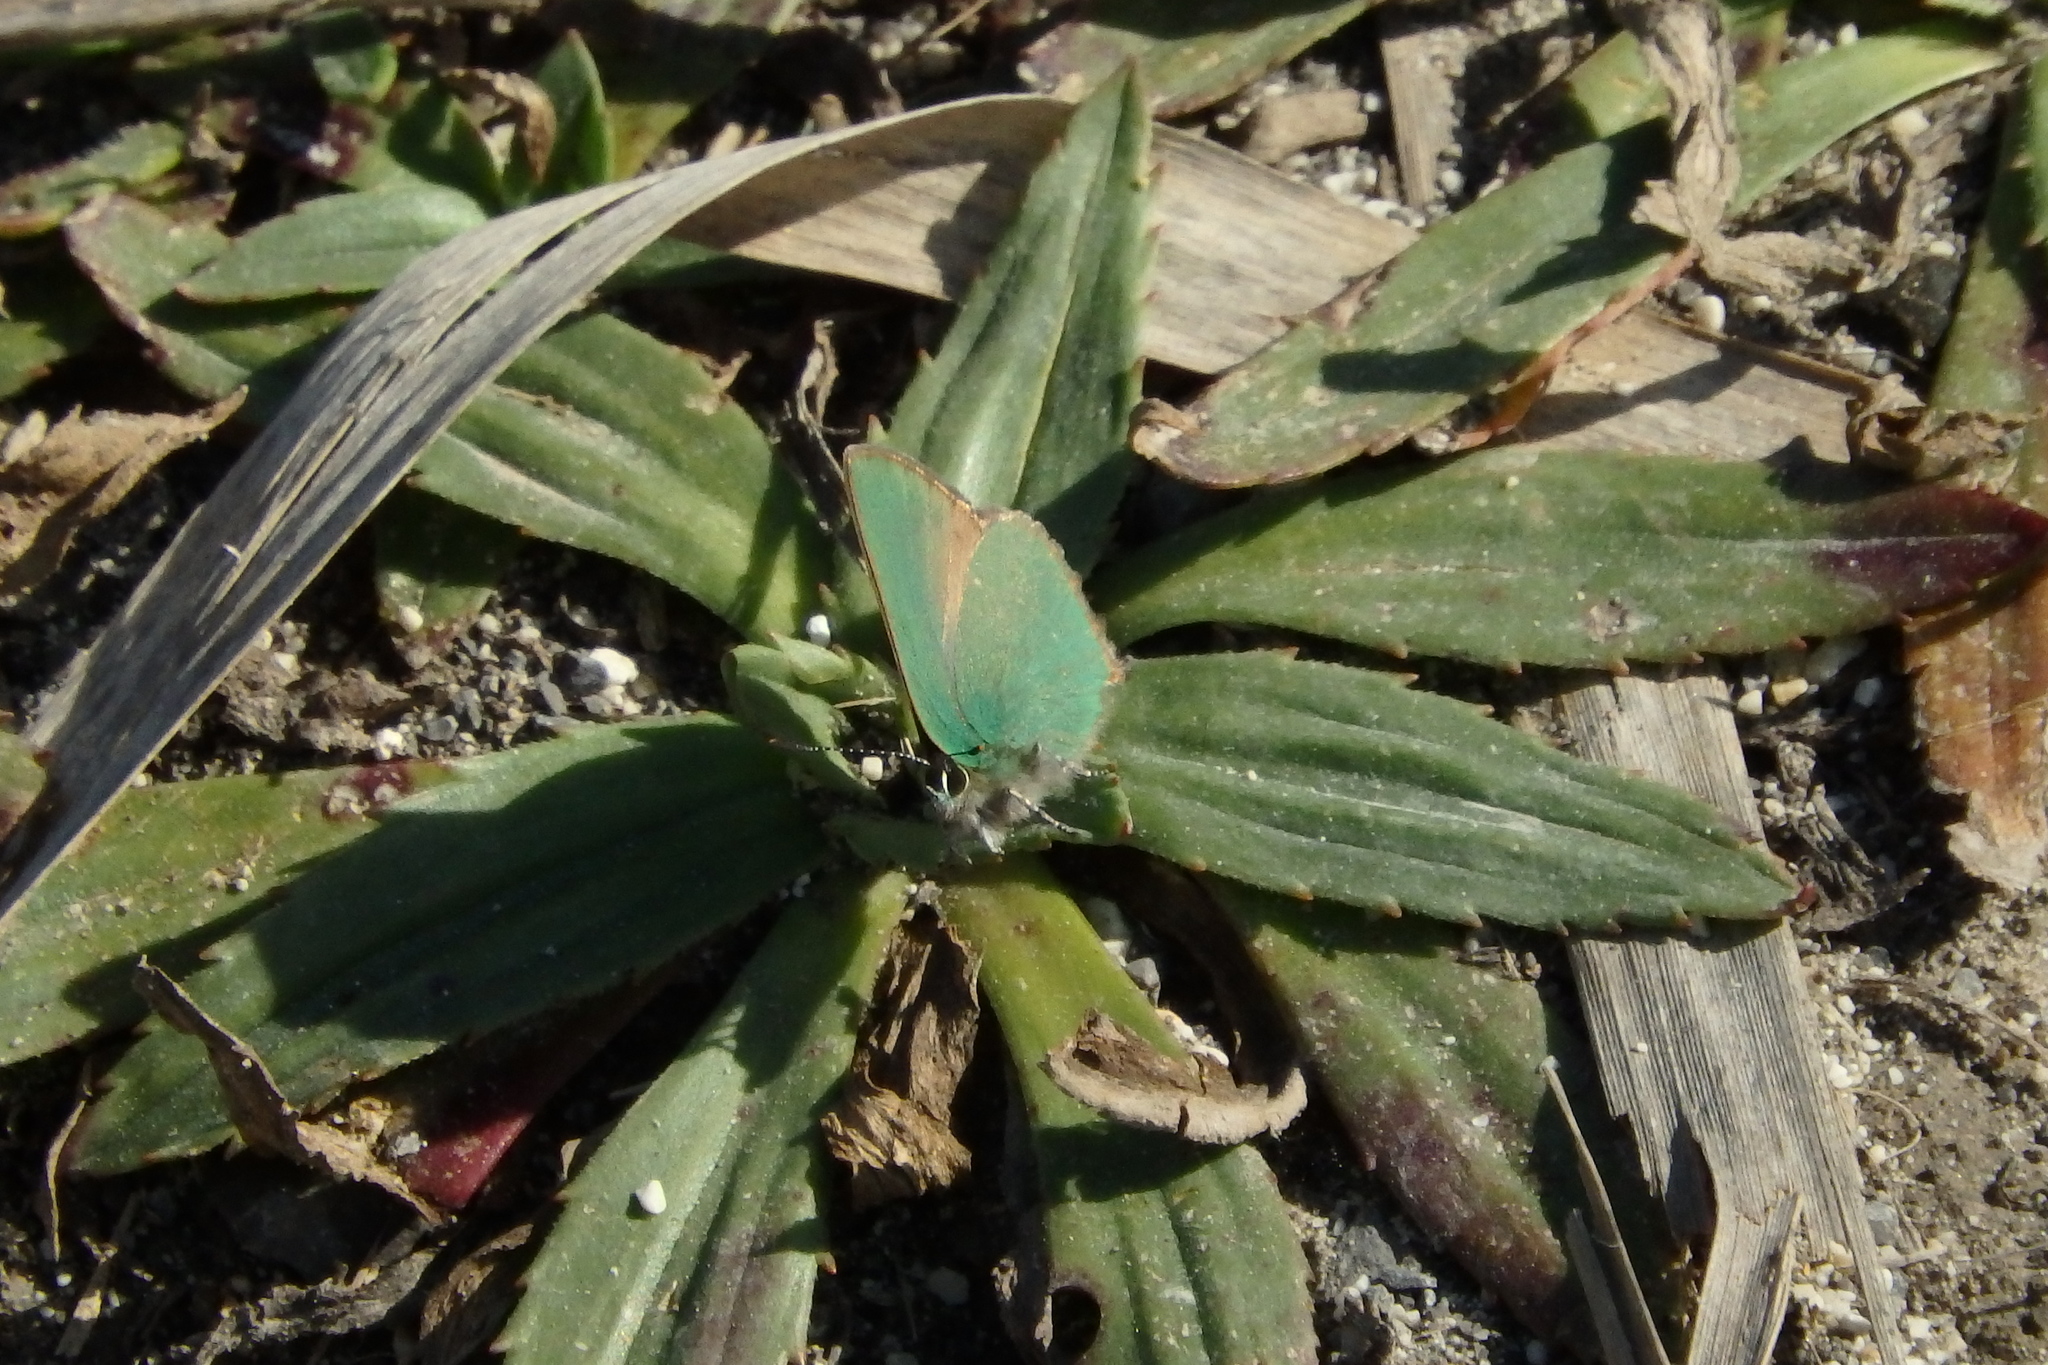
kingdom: Animalia
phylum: Arthropoda
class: Insecta
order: Lepidoptera
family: Lycaenidae
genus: Callophrys
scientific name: Callophrys rubi
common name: Green hairstreak
